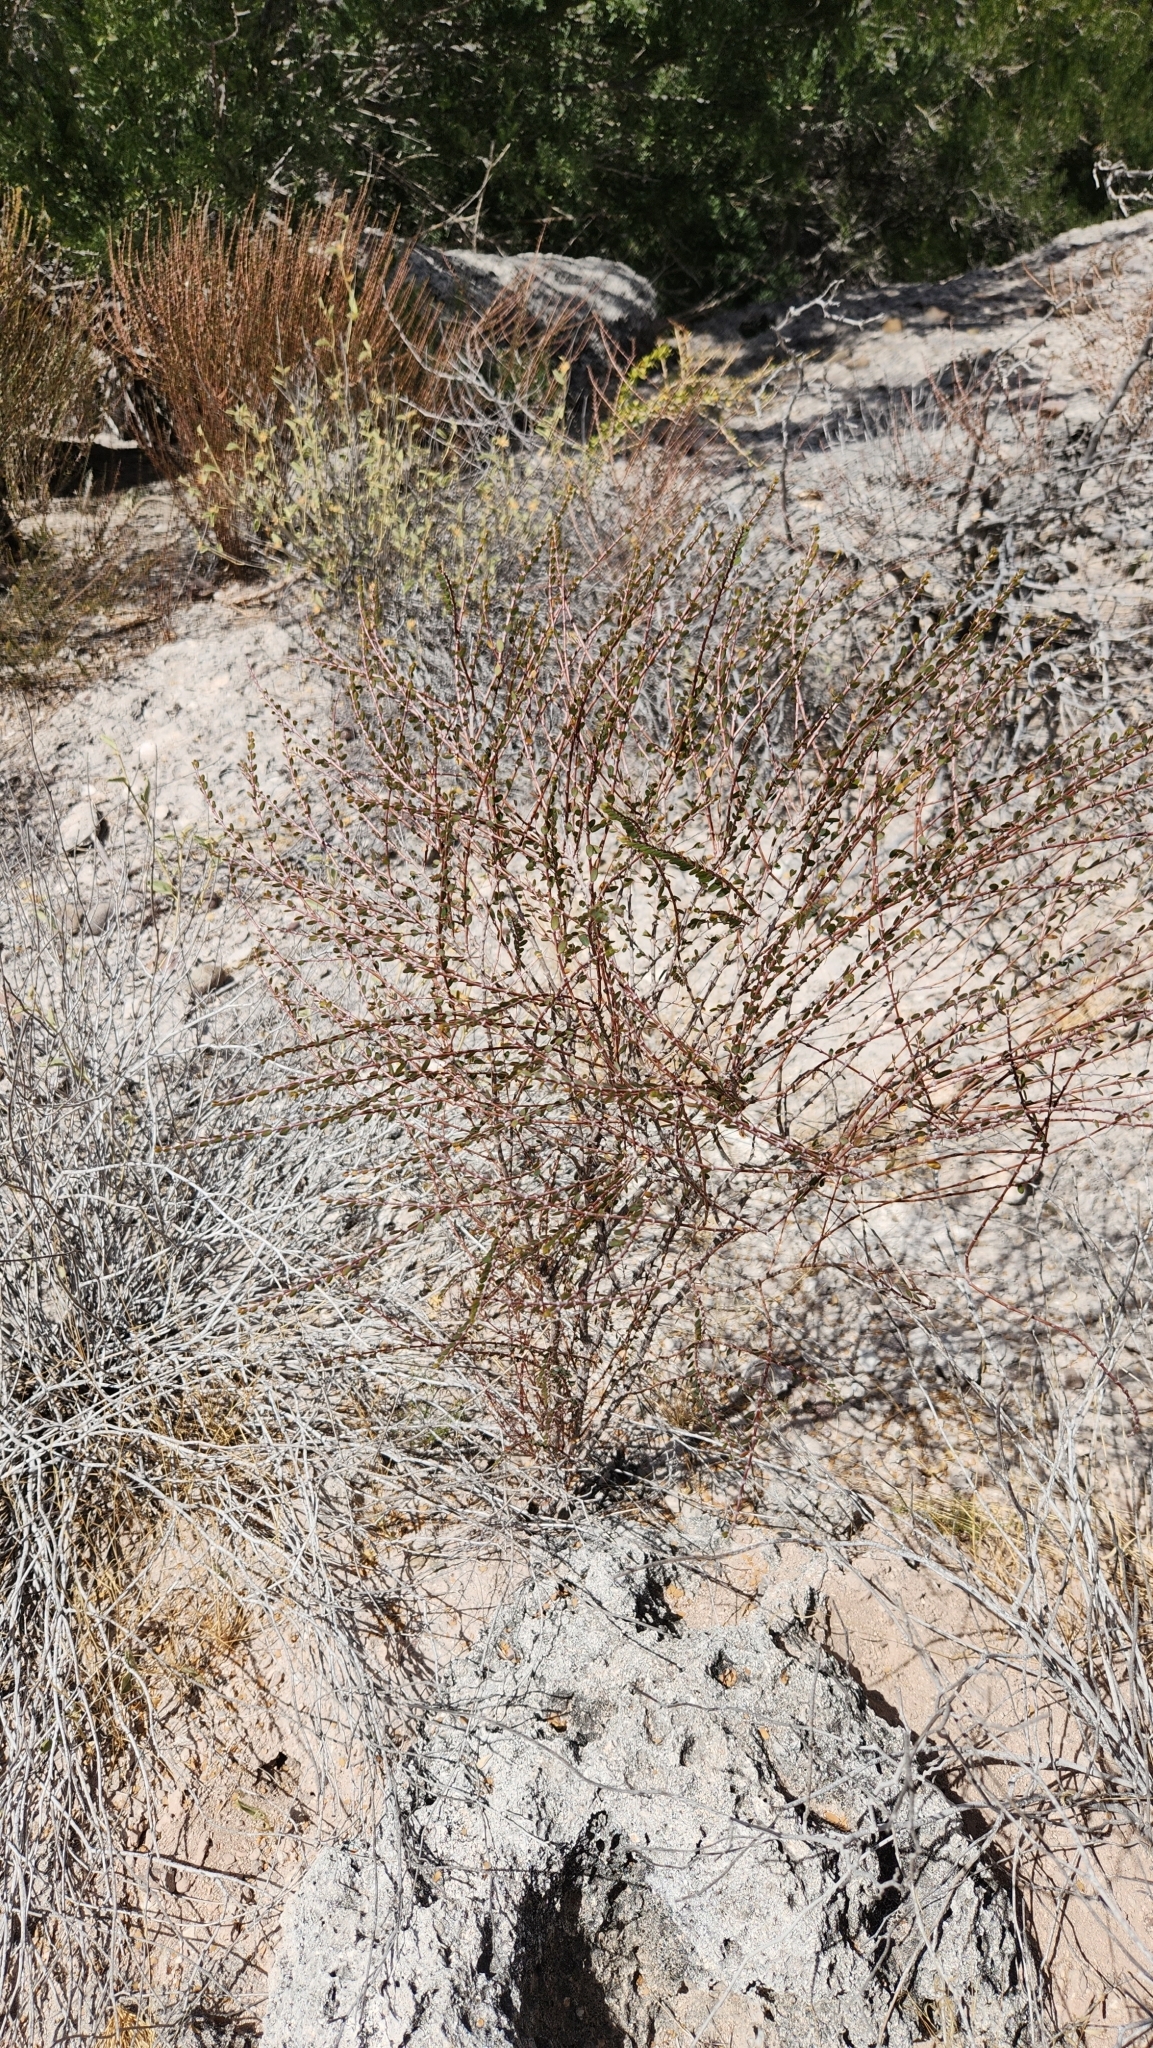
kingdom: Plantae
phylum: Tracheophyta
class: Magnoliopsida
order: Malpighiales
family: Euphorbiaceae
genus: Euphorbia
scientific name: Euphorbia magdalenae
